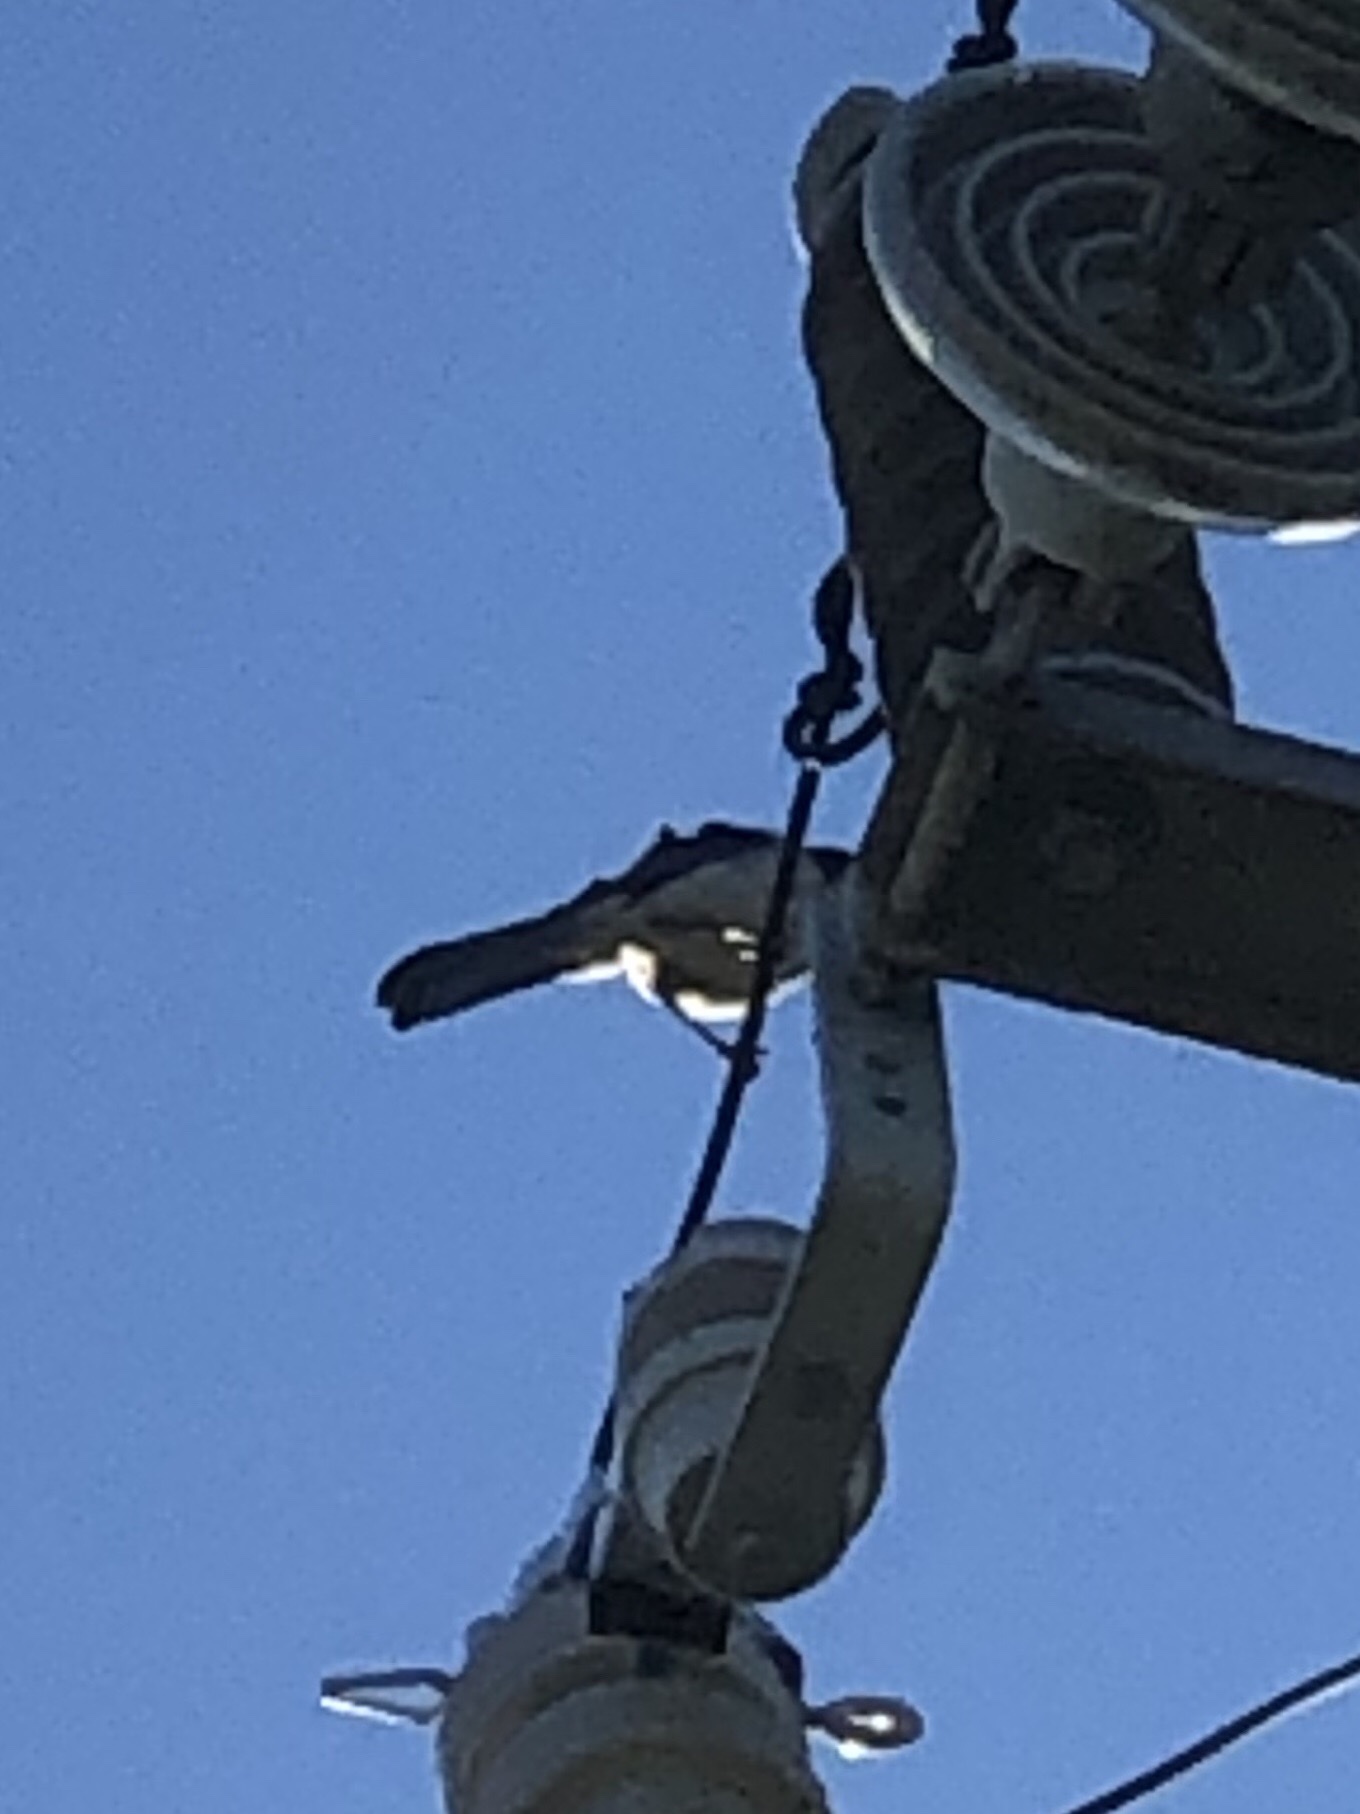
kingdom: Animalia
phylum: Chordata
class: Aves
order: Passeriformes
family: Corvidae
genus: Aphelocoma
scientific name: Aphelocoma californica
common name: California scrub-jay
